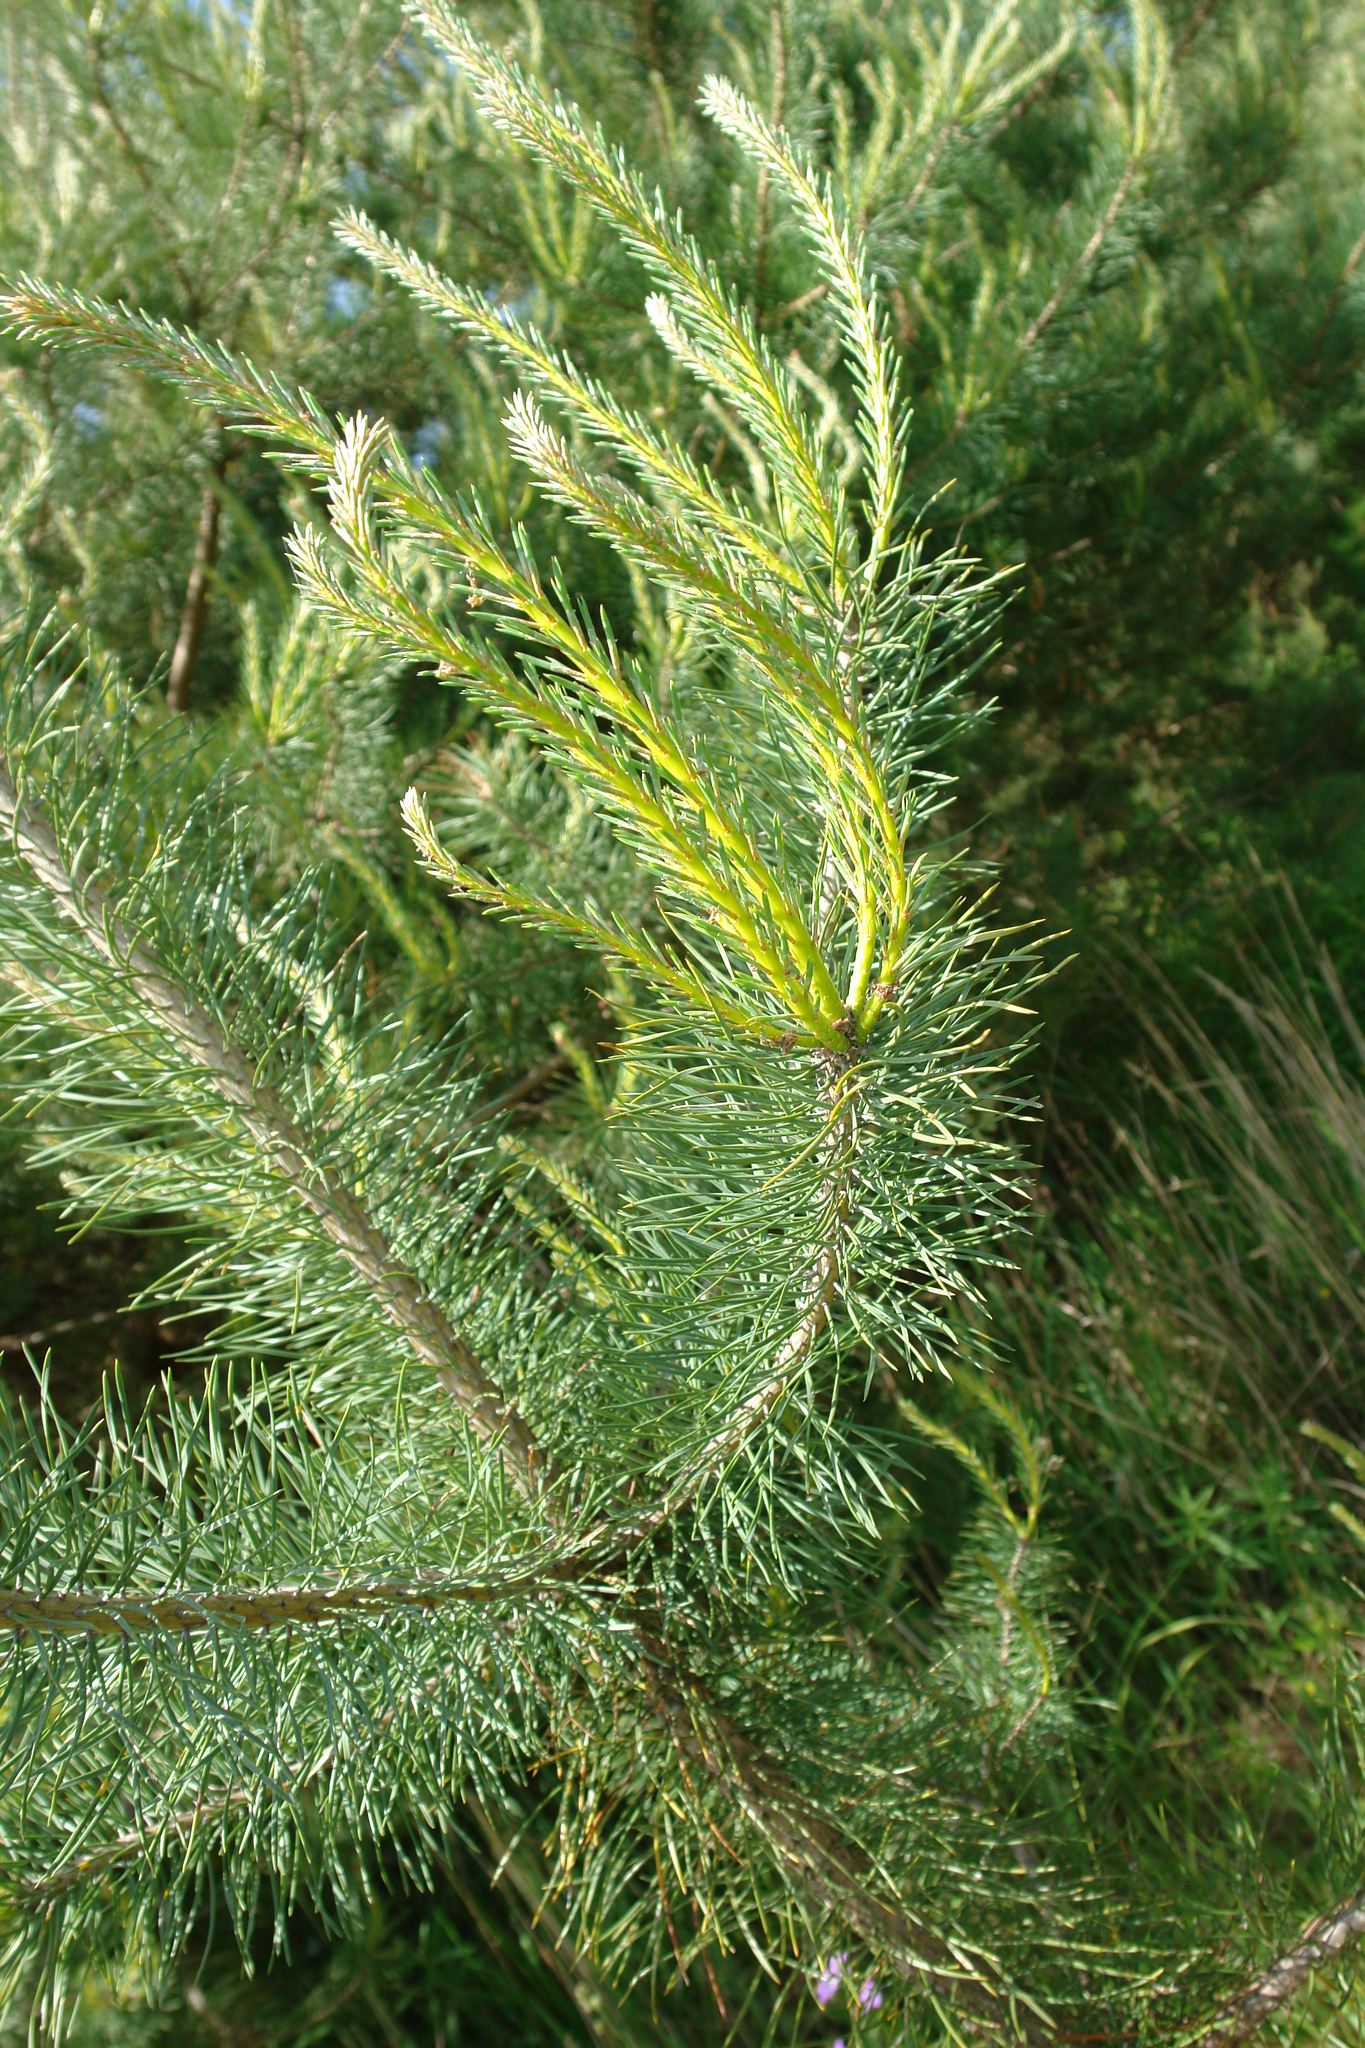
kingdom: Plantae
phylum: Tracheophyta
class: Pinopsida
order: Pinales
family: Pinaceae
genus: Pinus
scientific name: Pinus sylvestris
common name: Scots pine
